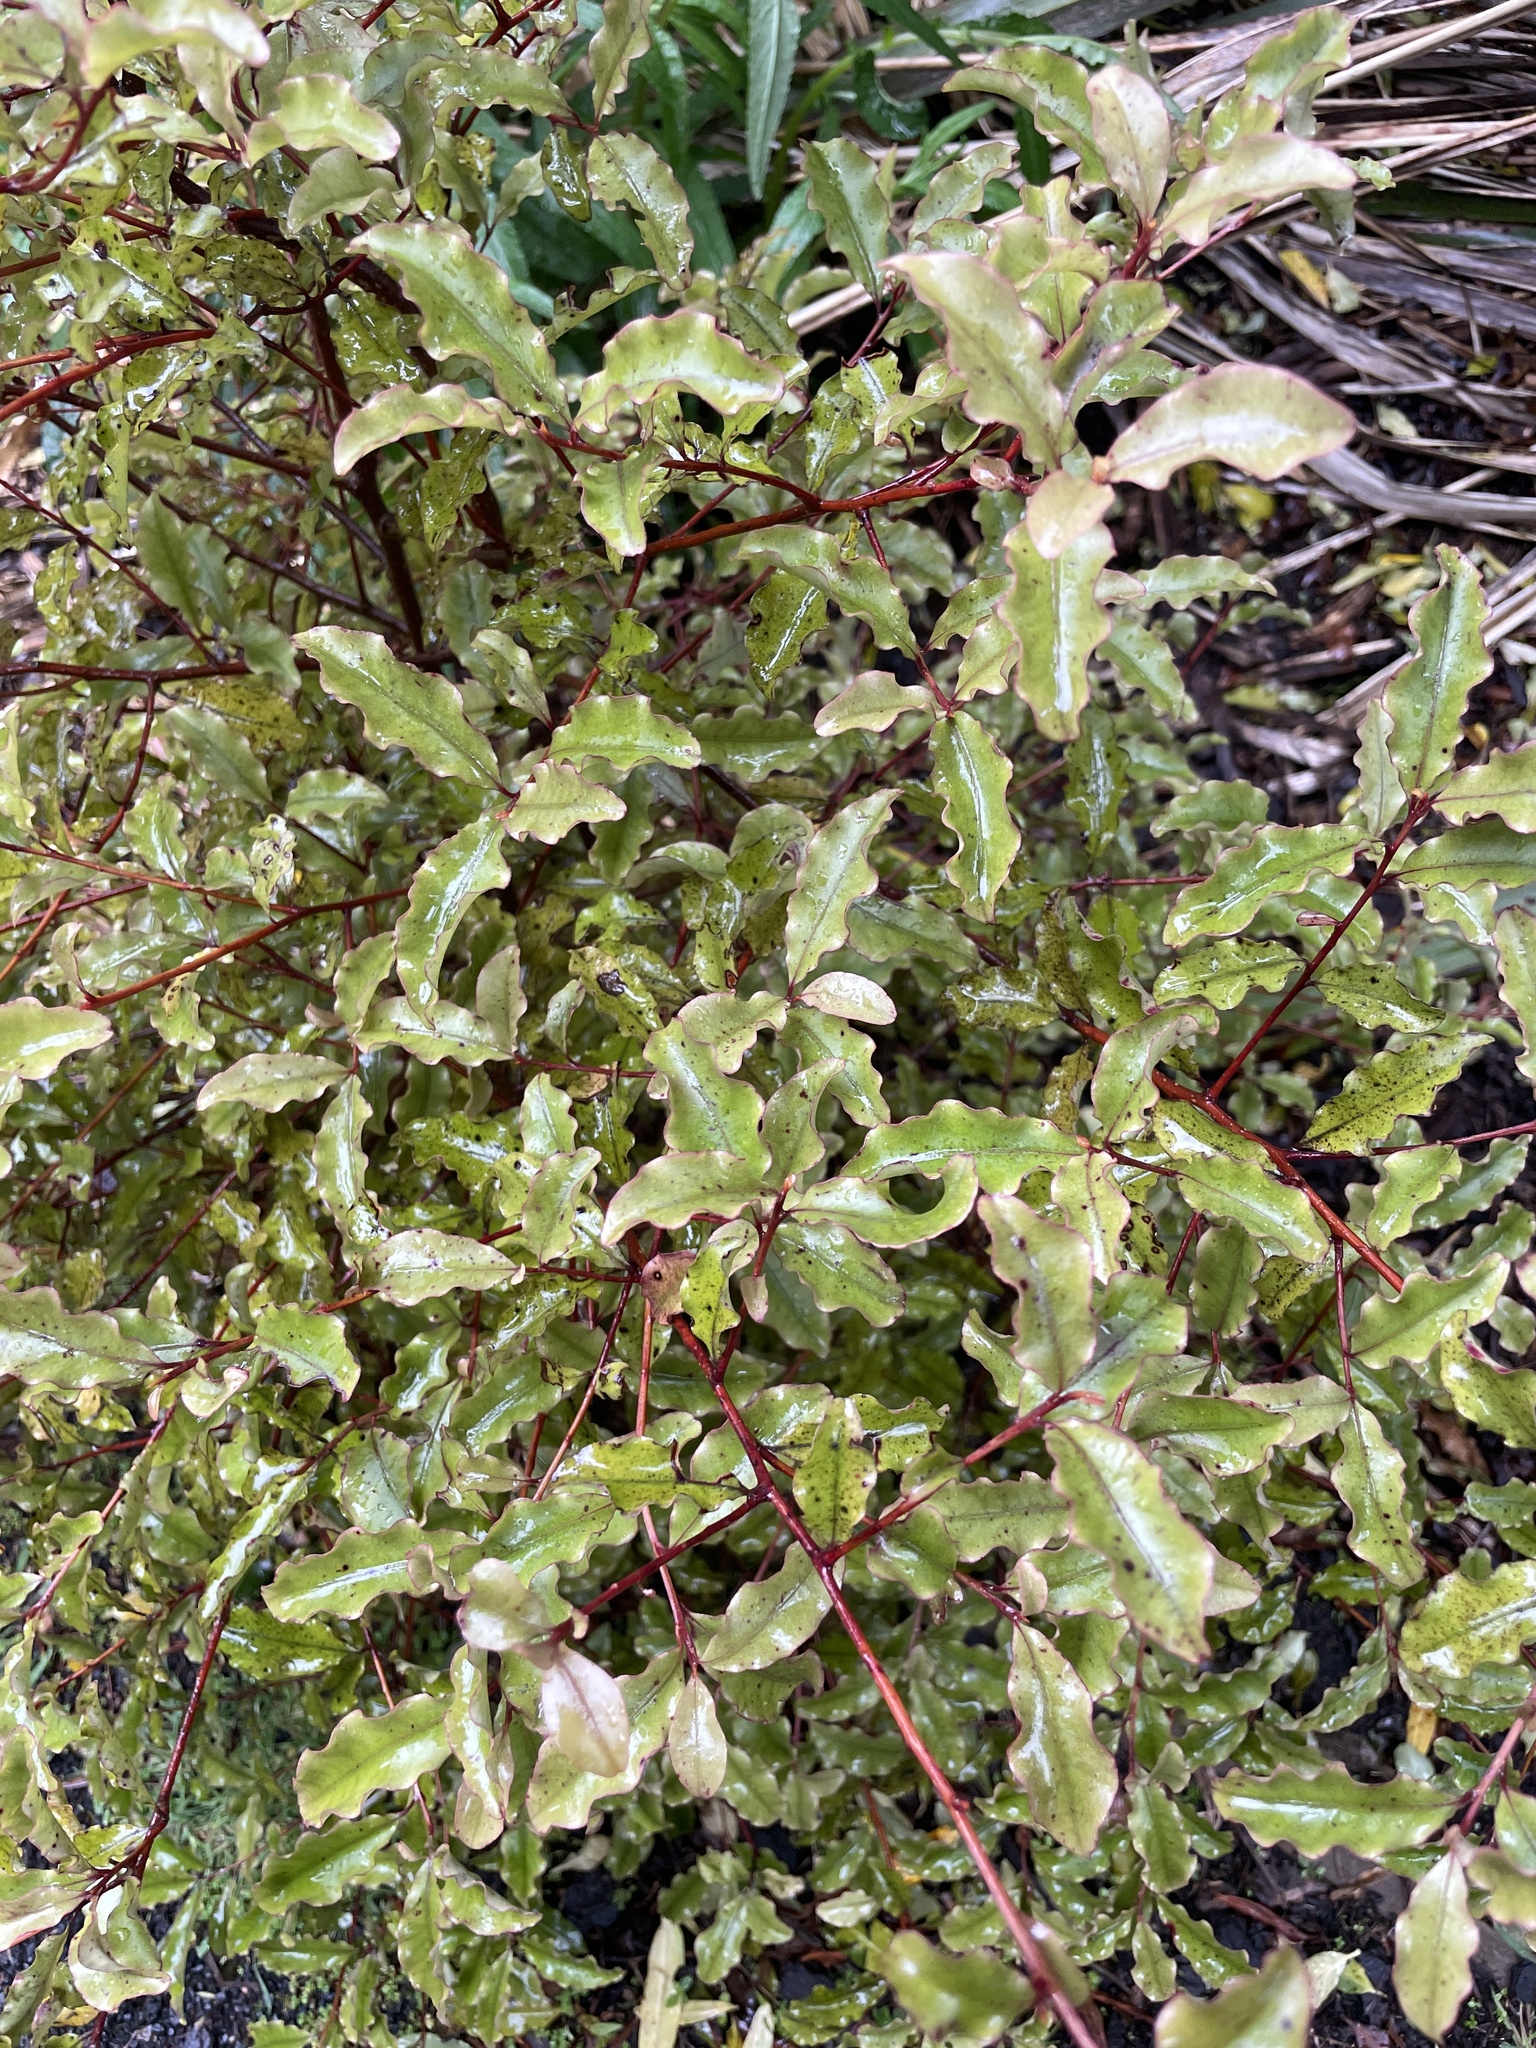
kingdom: Plantae
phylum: Tracheophyta
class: Magnoliopsida
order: Ericales
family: Primulaceae
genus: Myrsine
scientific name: Myrsine australis
